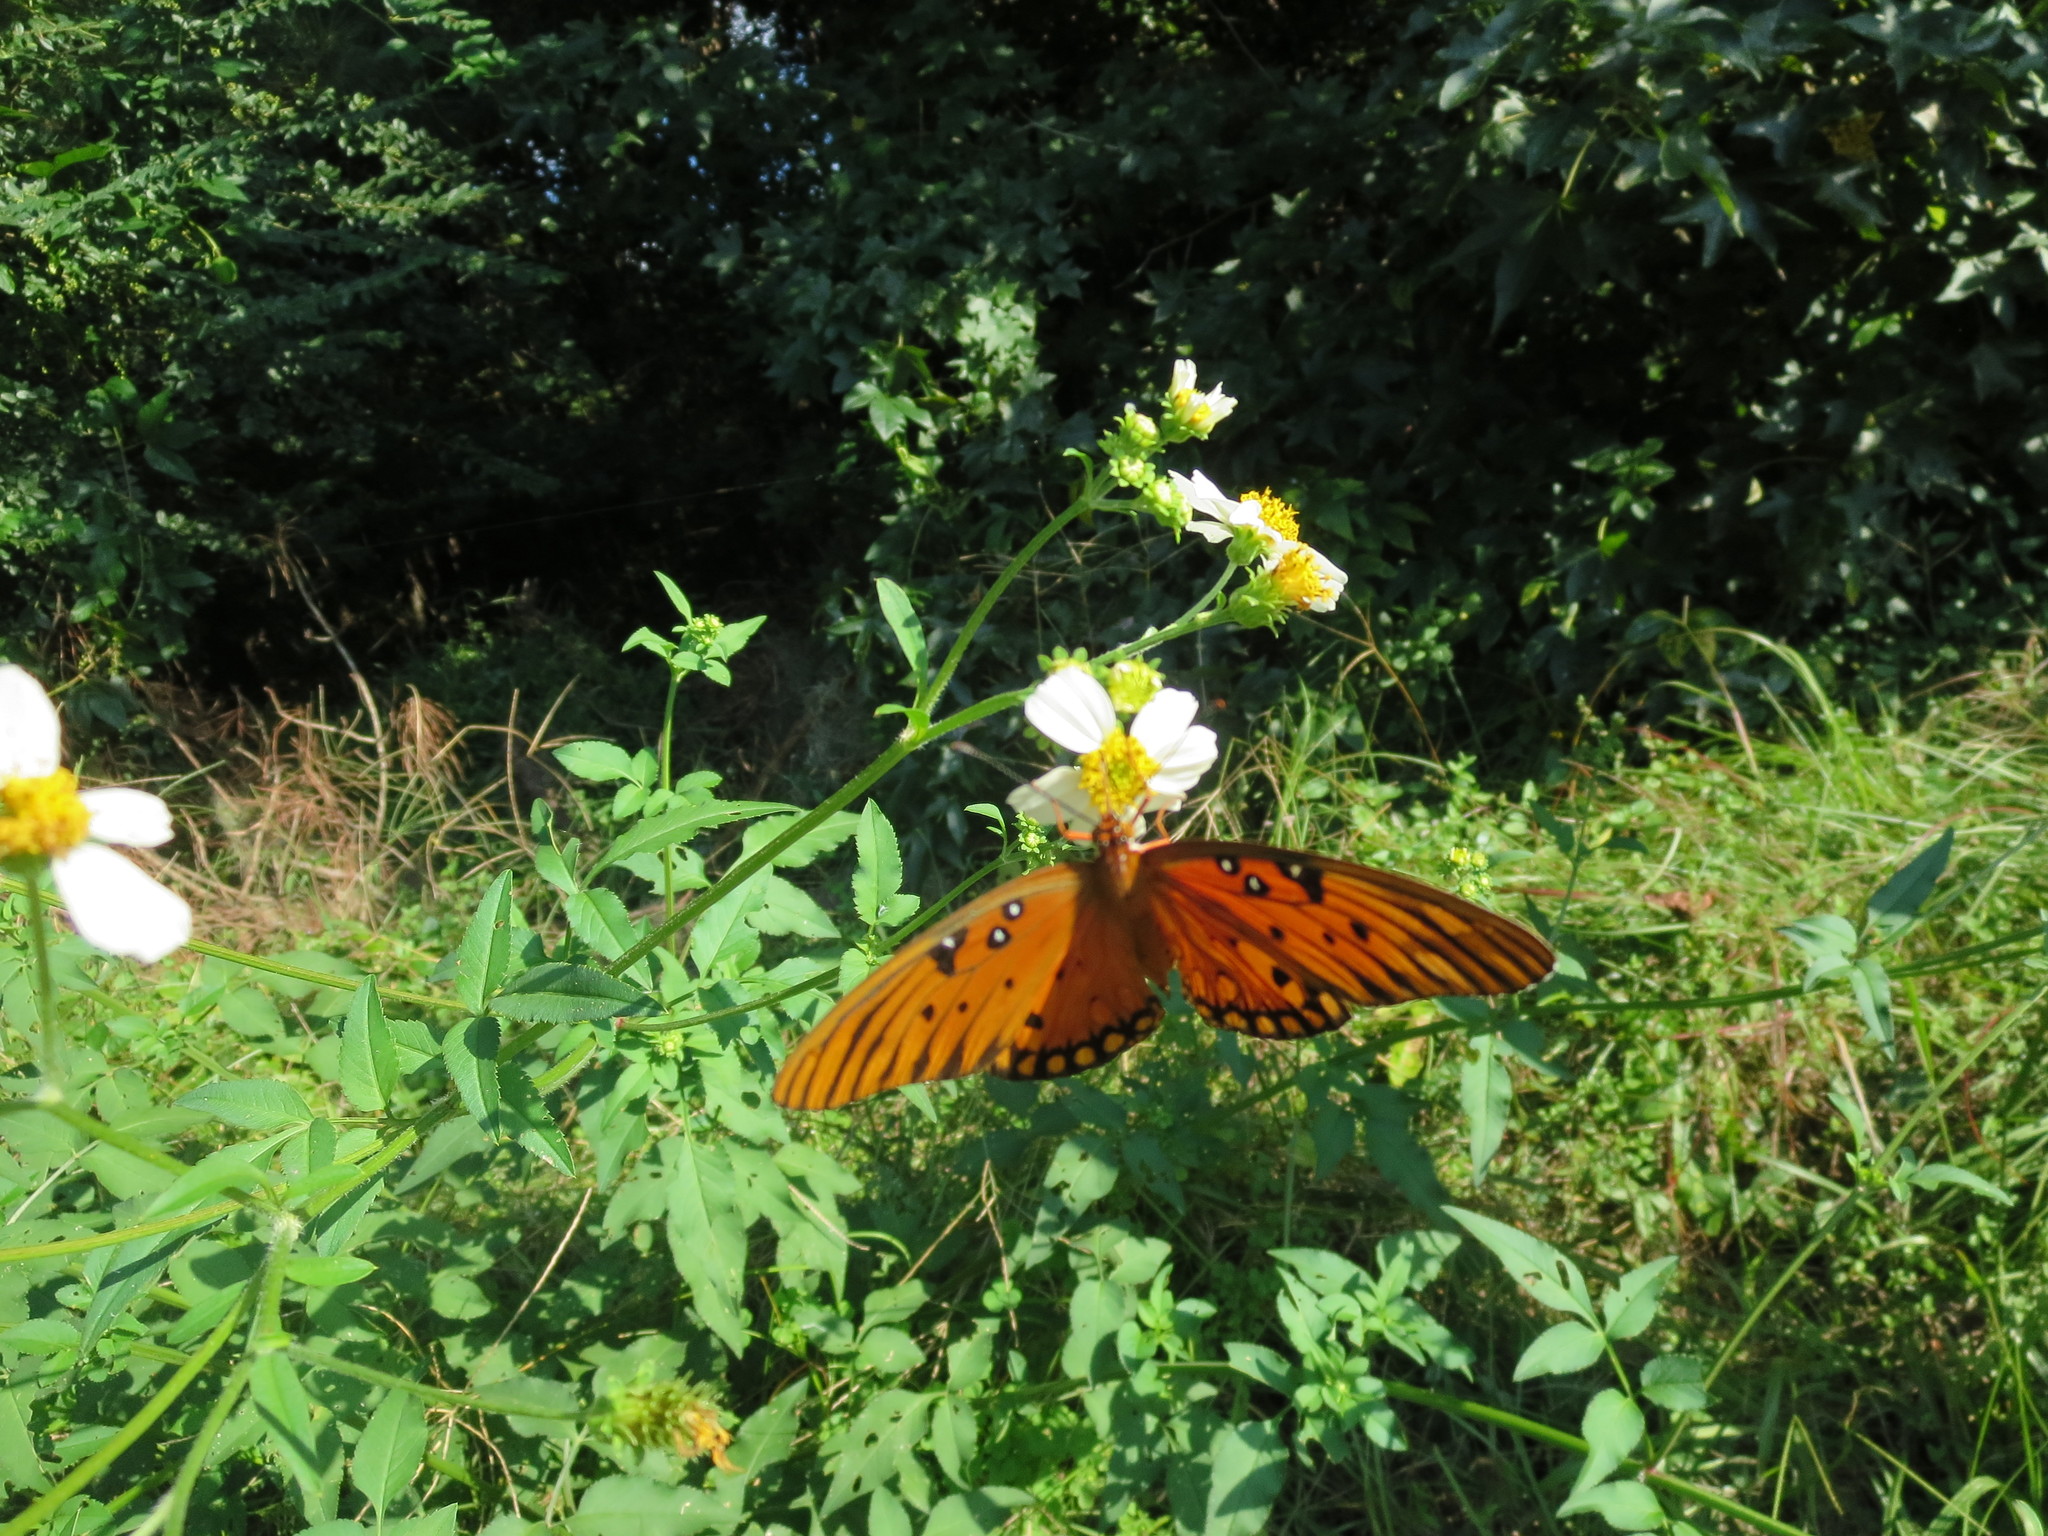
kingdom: Animalia
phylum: Arthropoda
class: Insecta
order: Lepidoptera
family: Nymphalidae
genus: Dione
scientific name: Dione vanillae
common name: Gulf fritillary
